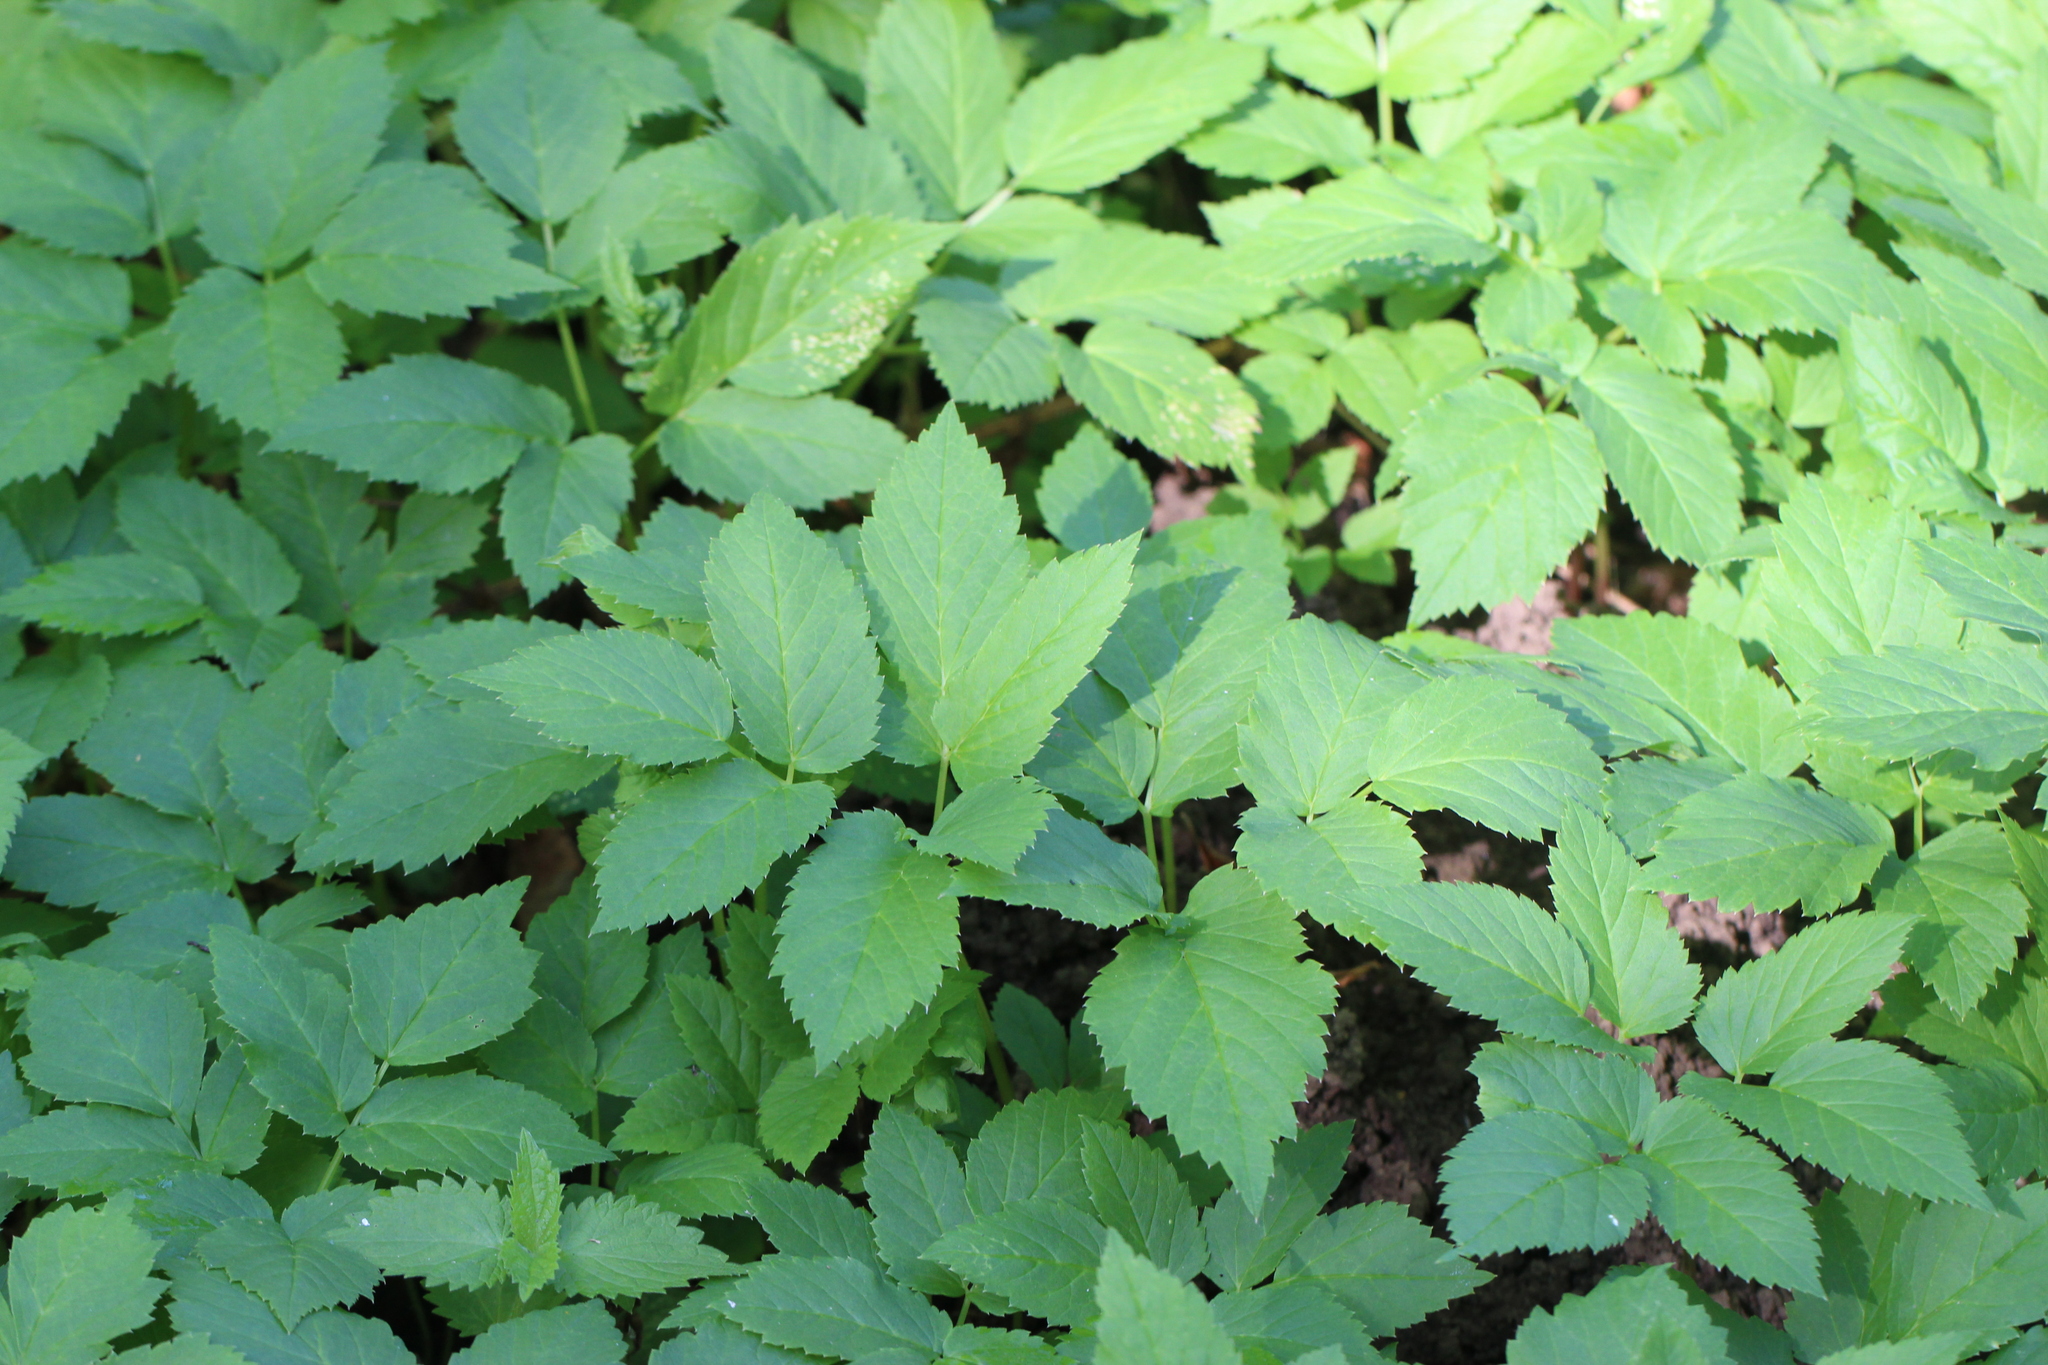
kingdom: Plantae
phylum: Tracheophyta
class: Magnoliopsida
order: Apiales
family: Apiaceae
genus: Aegopodium
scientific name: Aegopodium podagraria
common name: Ground-elder
